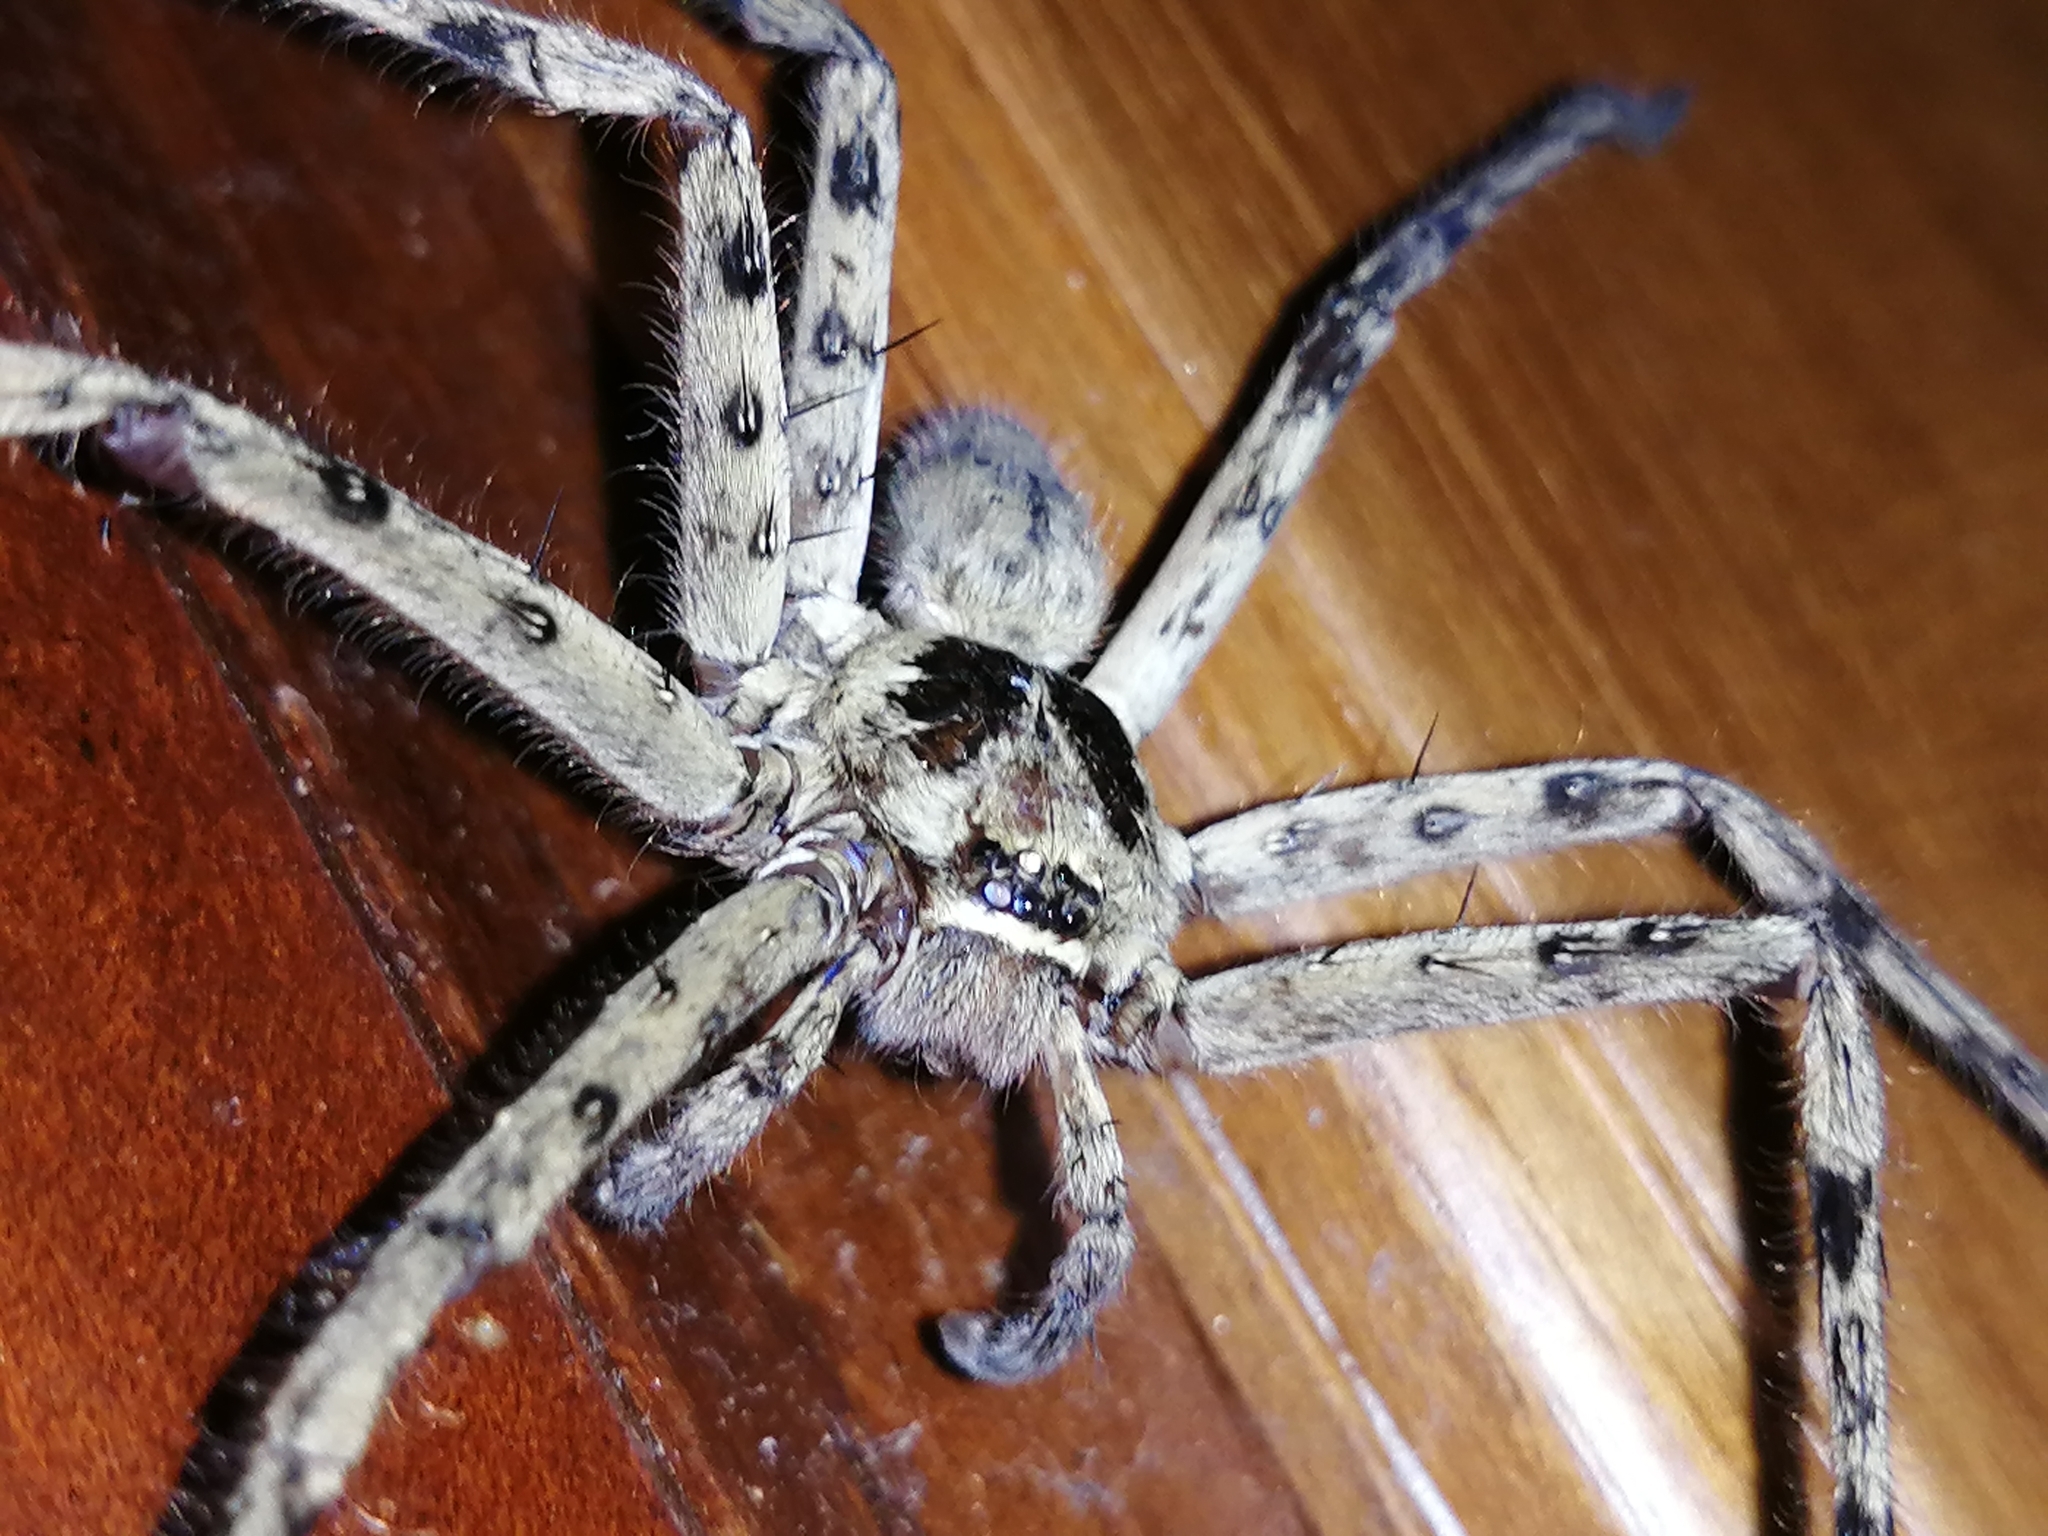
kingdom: Animalia
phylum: Arthropoda
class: Arachnida
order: Araneae
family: Sparassidae
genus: Heteropoda
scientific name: Heteropoda venatoria
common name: Huntsman spider
